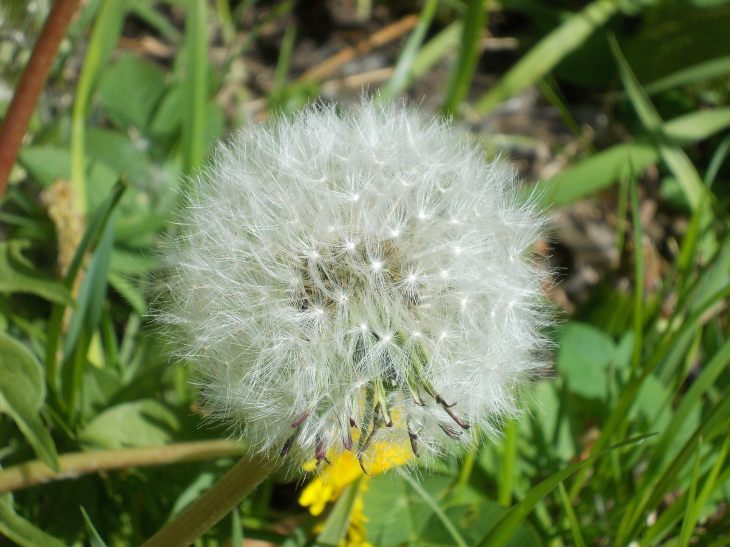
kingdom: Plantae
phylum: Tracheophyta
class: Magnoliopsida
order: Asterales
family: Asteraceae
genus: Taraxacum
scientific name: Taraxacum officinale
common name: Common dandelion
